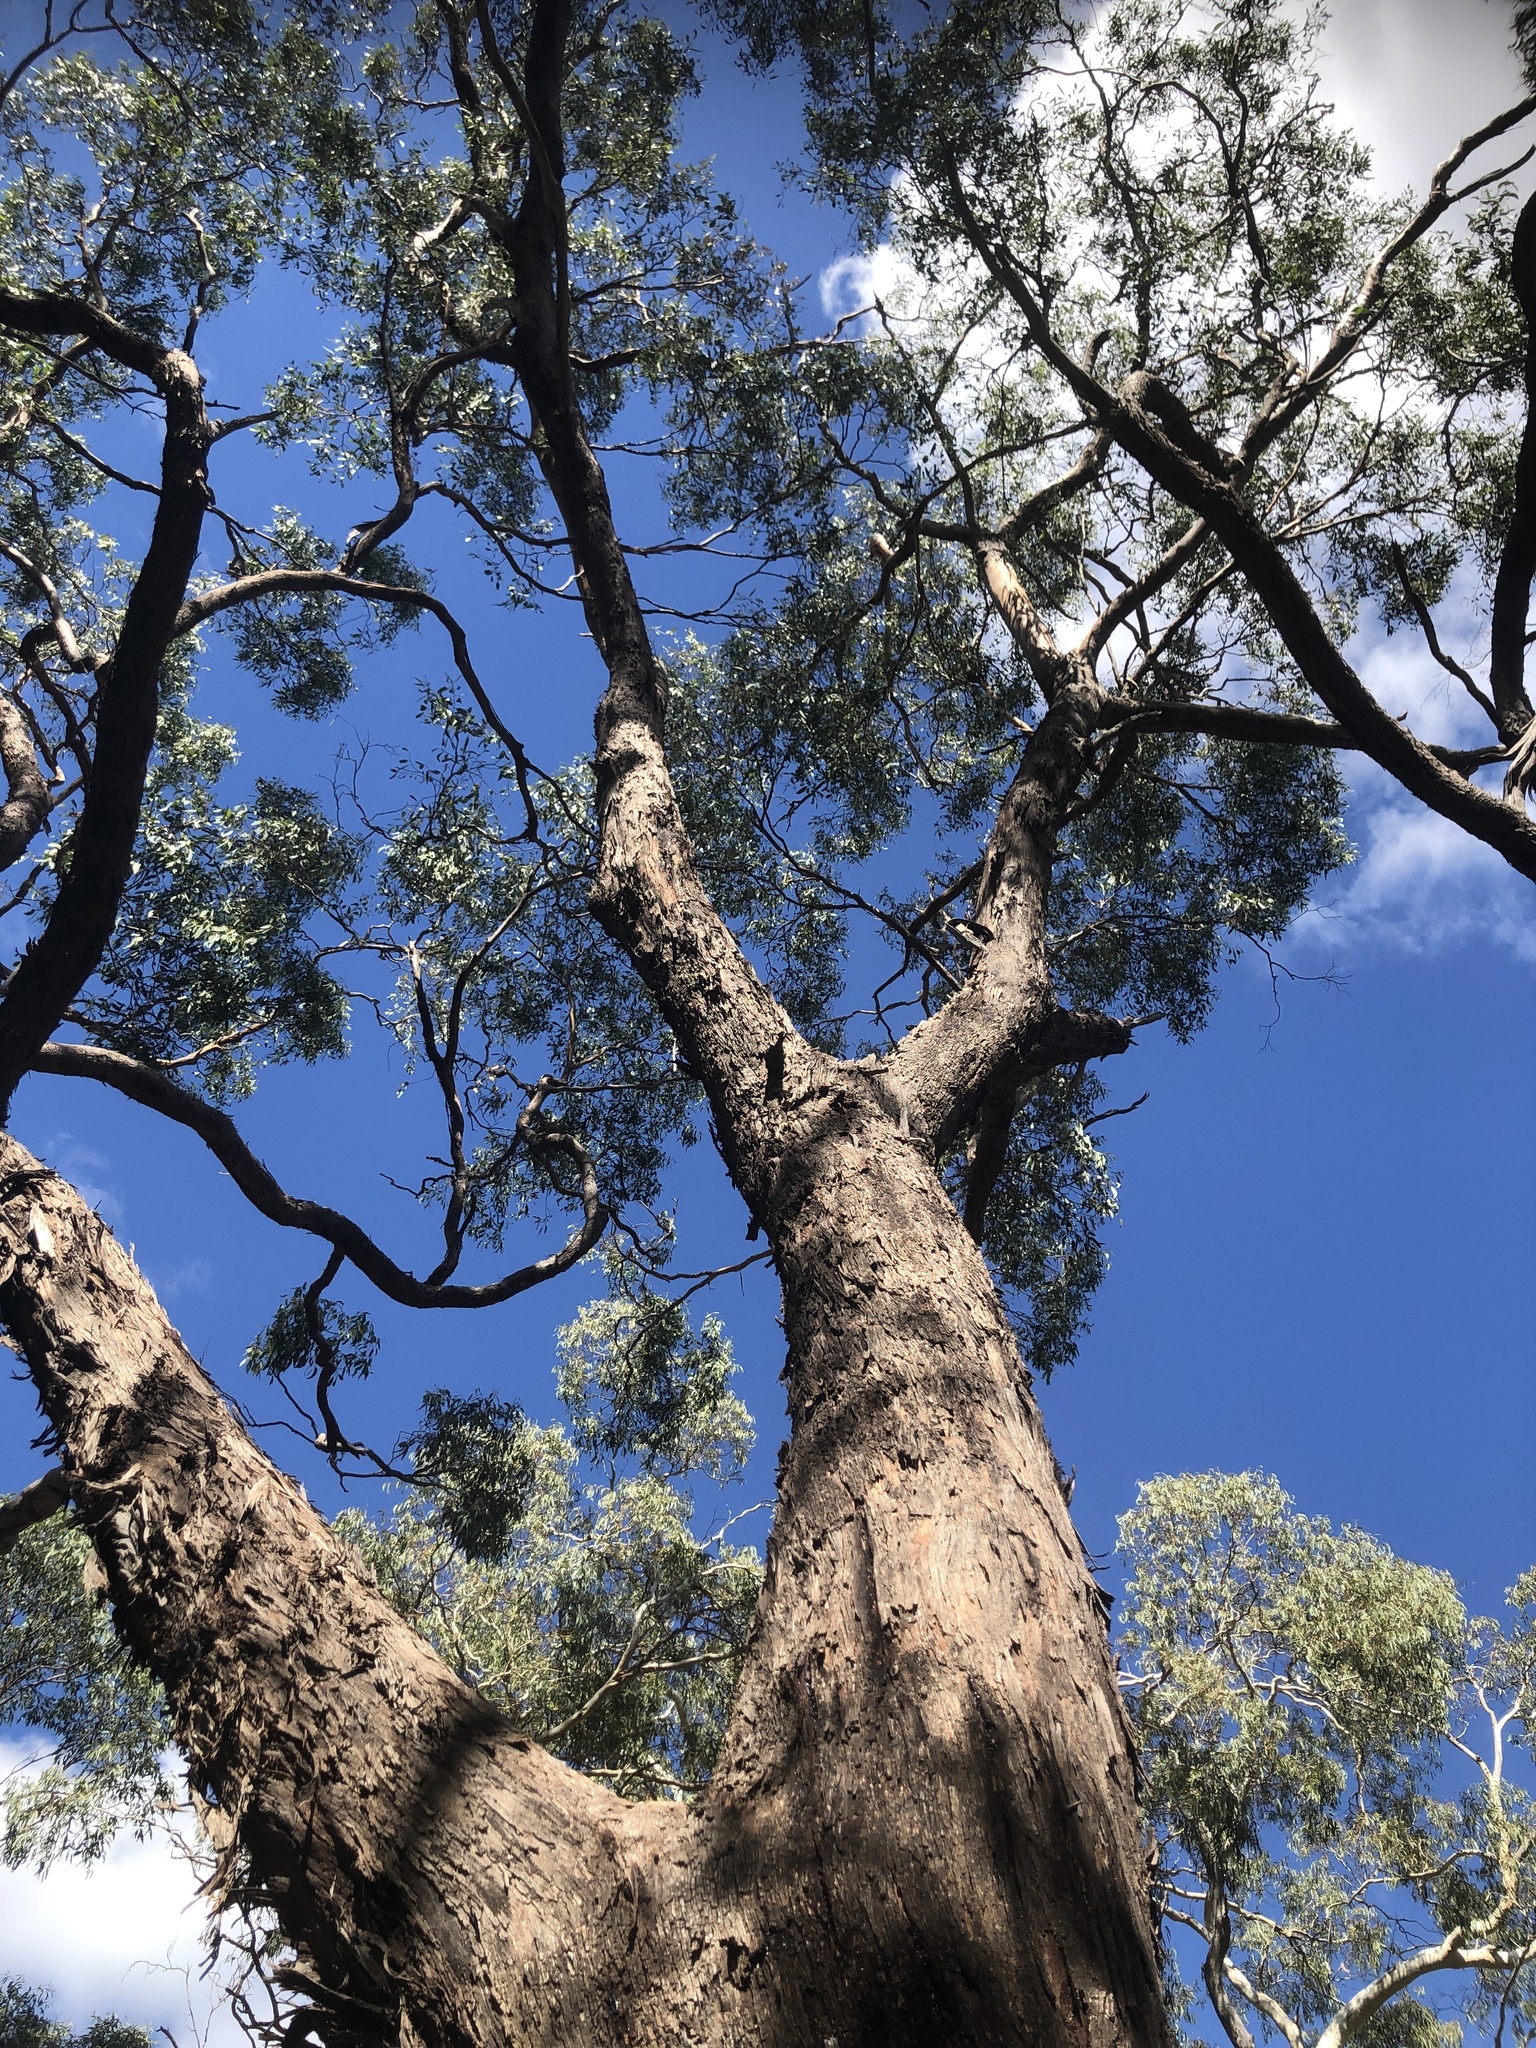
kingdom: Plantae
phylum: Tracheophyta
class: Magnoliopsida
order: Myrtales
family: Myrtaceae
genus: Eucalyptus
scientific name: Eucalyptus obliqua
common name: Messmate stringybark
